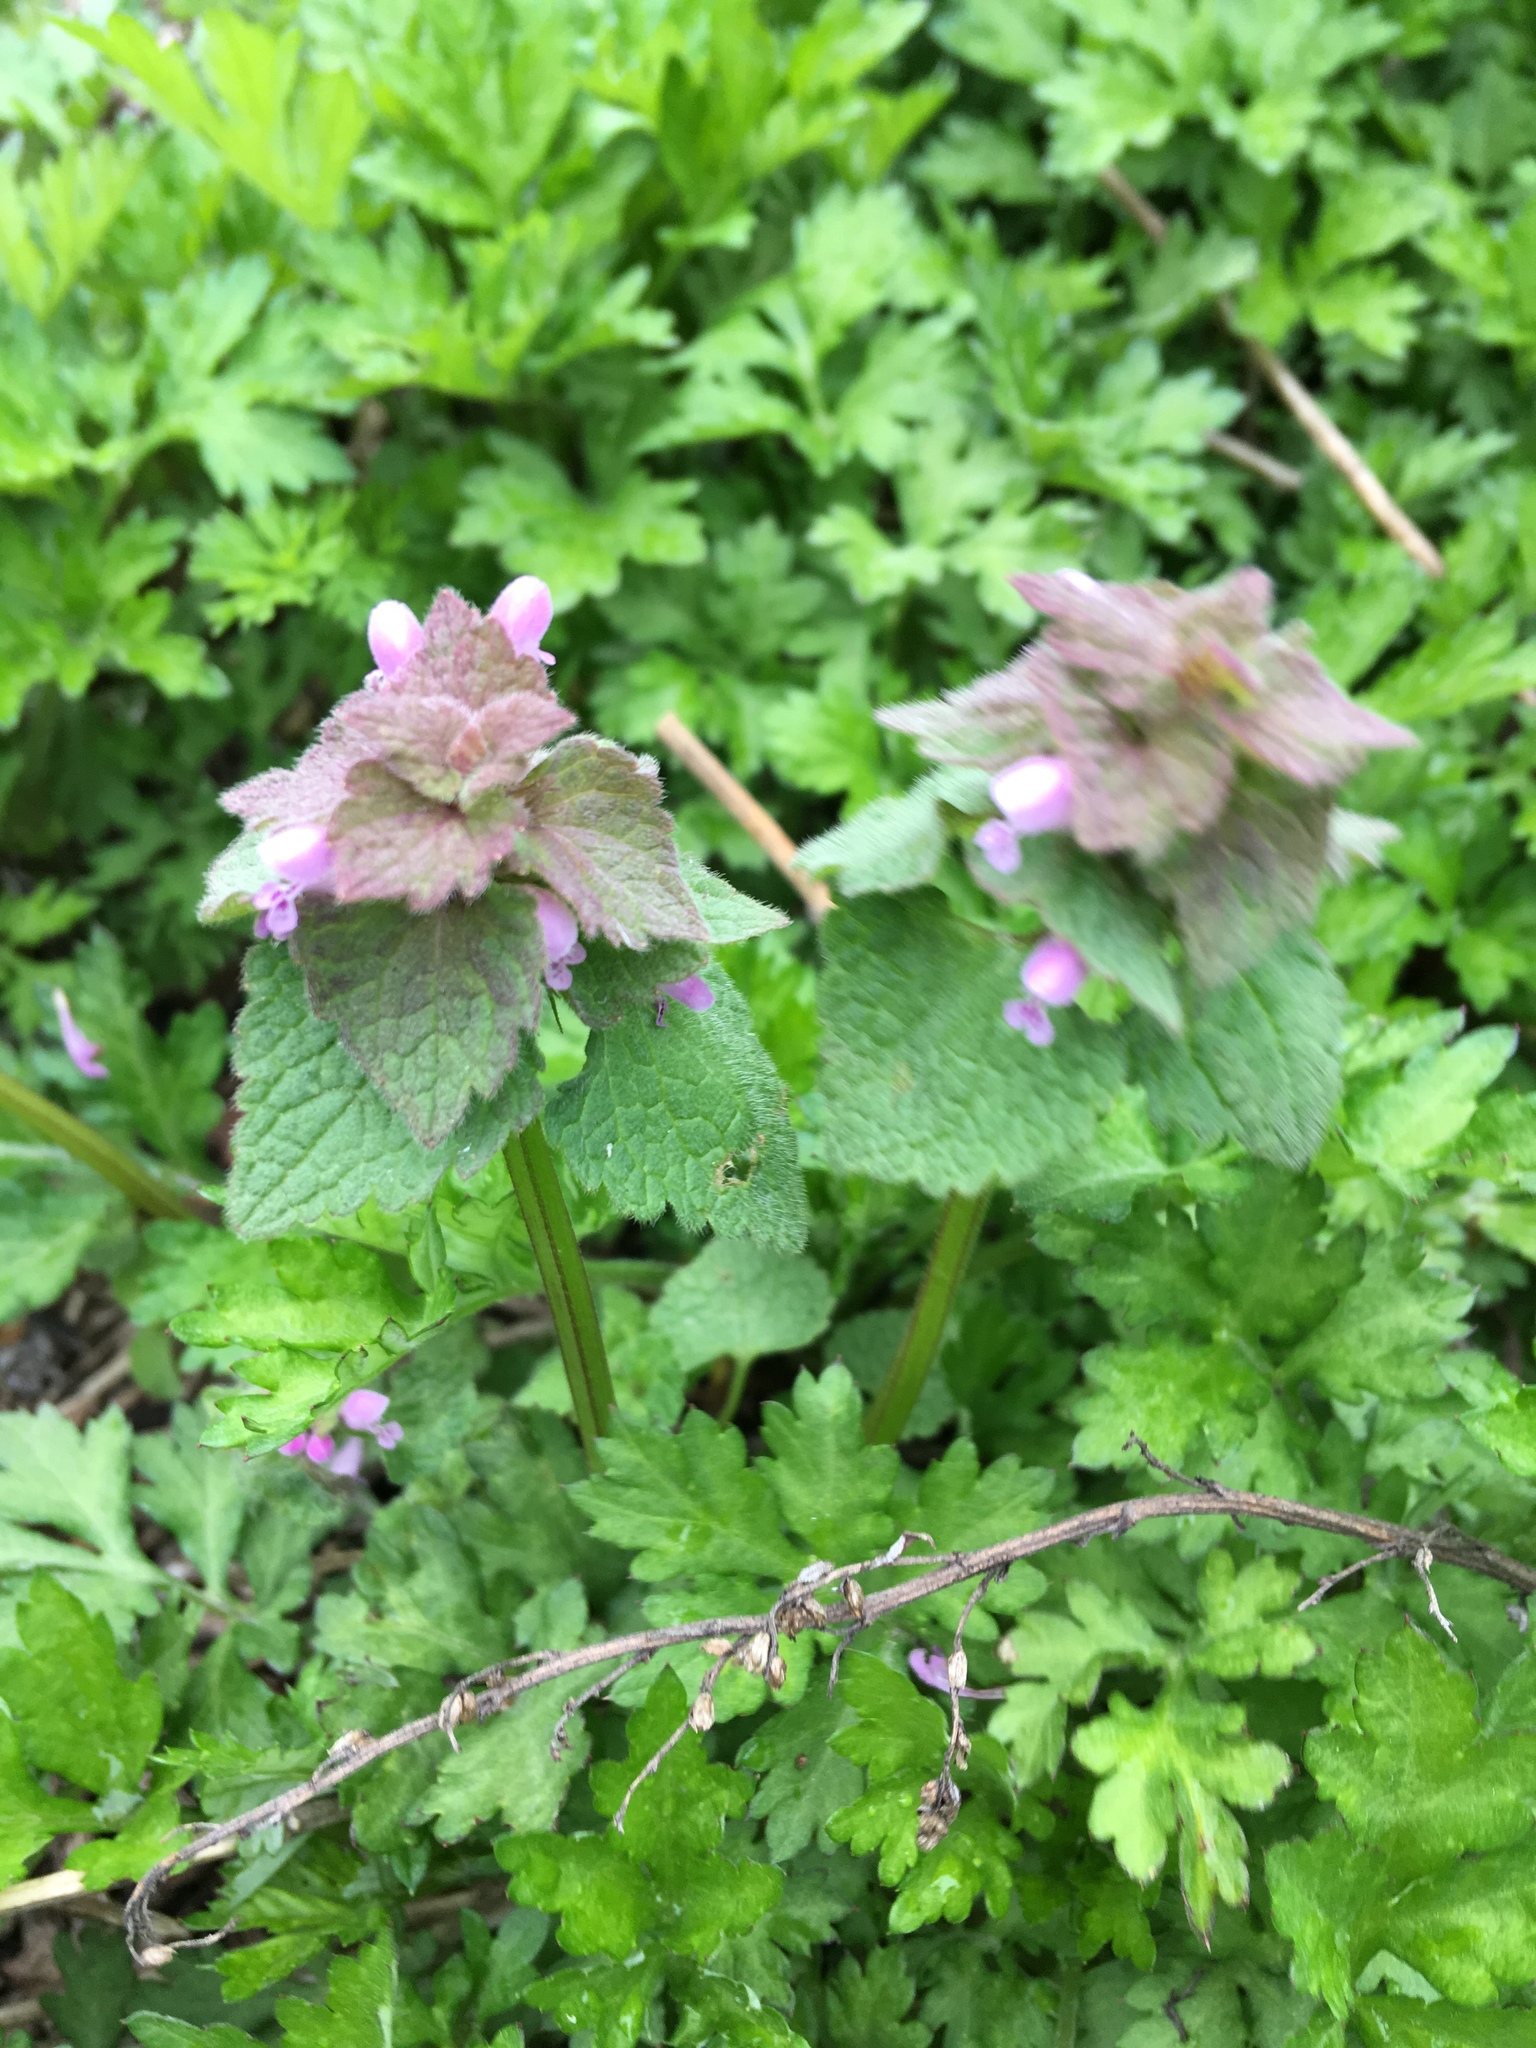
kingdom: Plantae
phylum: Tracheophyta
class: Magnoliopsida
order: Lamiales
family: Lamiaceae
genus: Lamium
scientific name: Lamium purpureum
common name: Red dead-nettle
